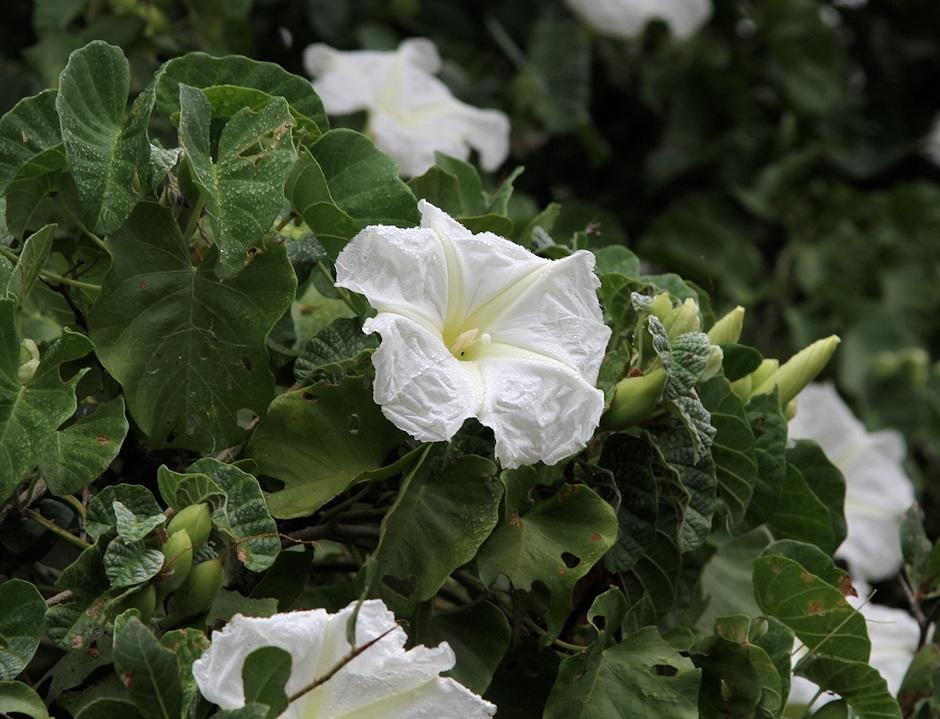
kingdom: Plantae
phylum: Tracheophyta
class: Magnoliopsida
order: Solanales
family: Convolvulaceae
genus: Ipomoea
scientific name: Ipomoea albivenia
